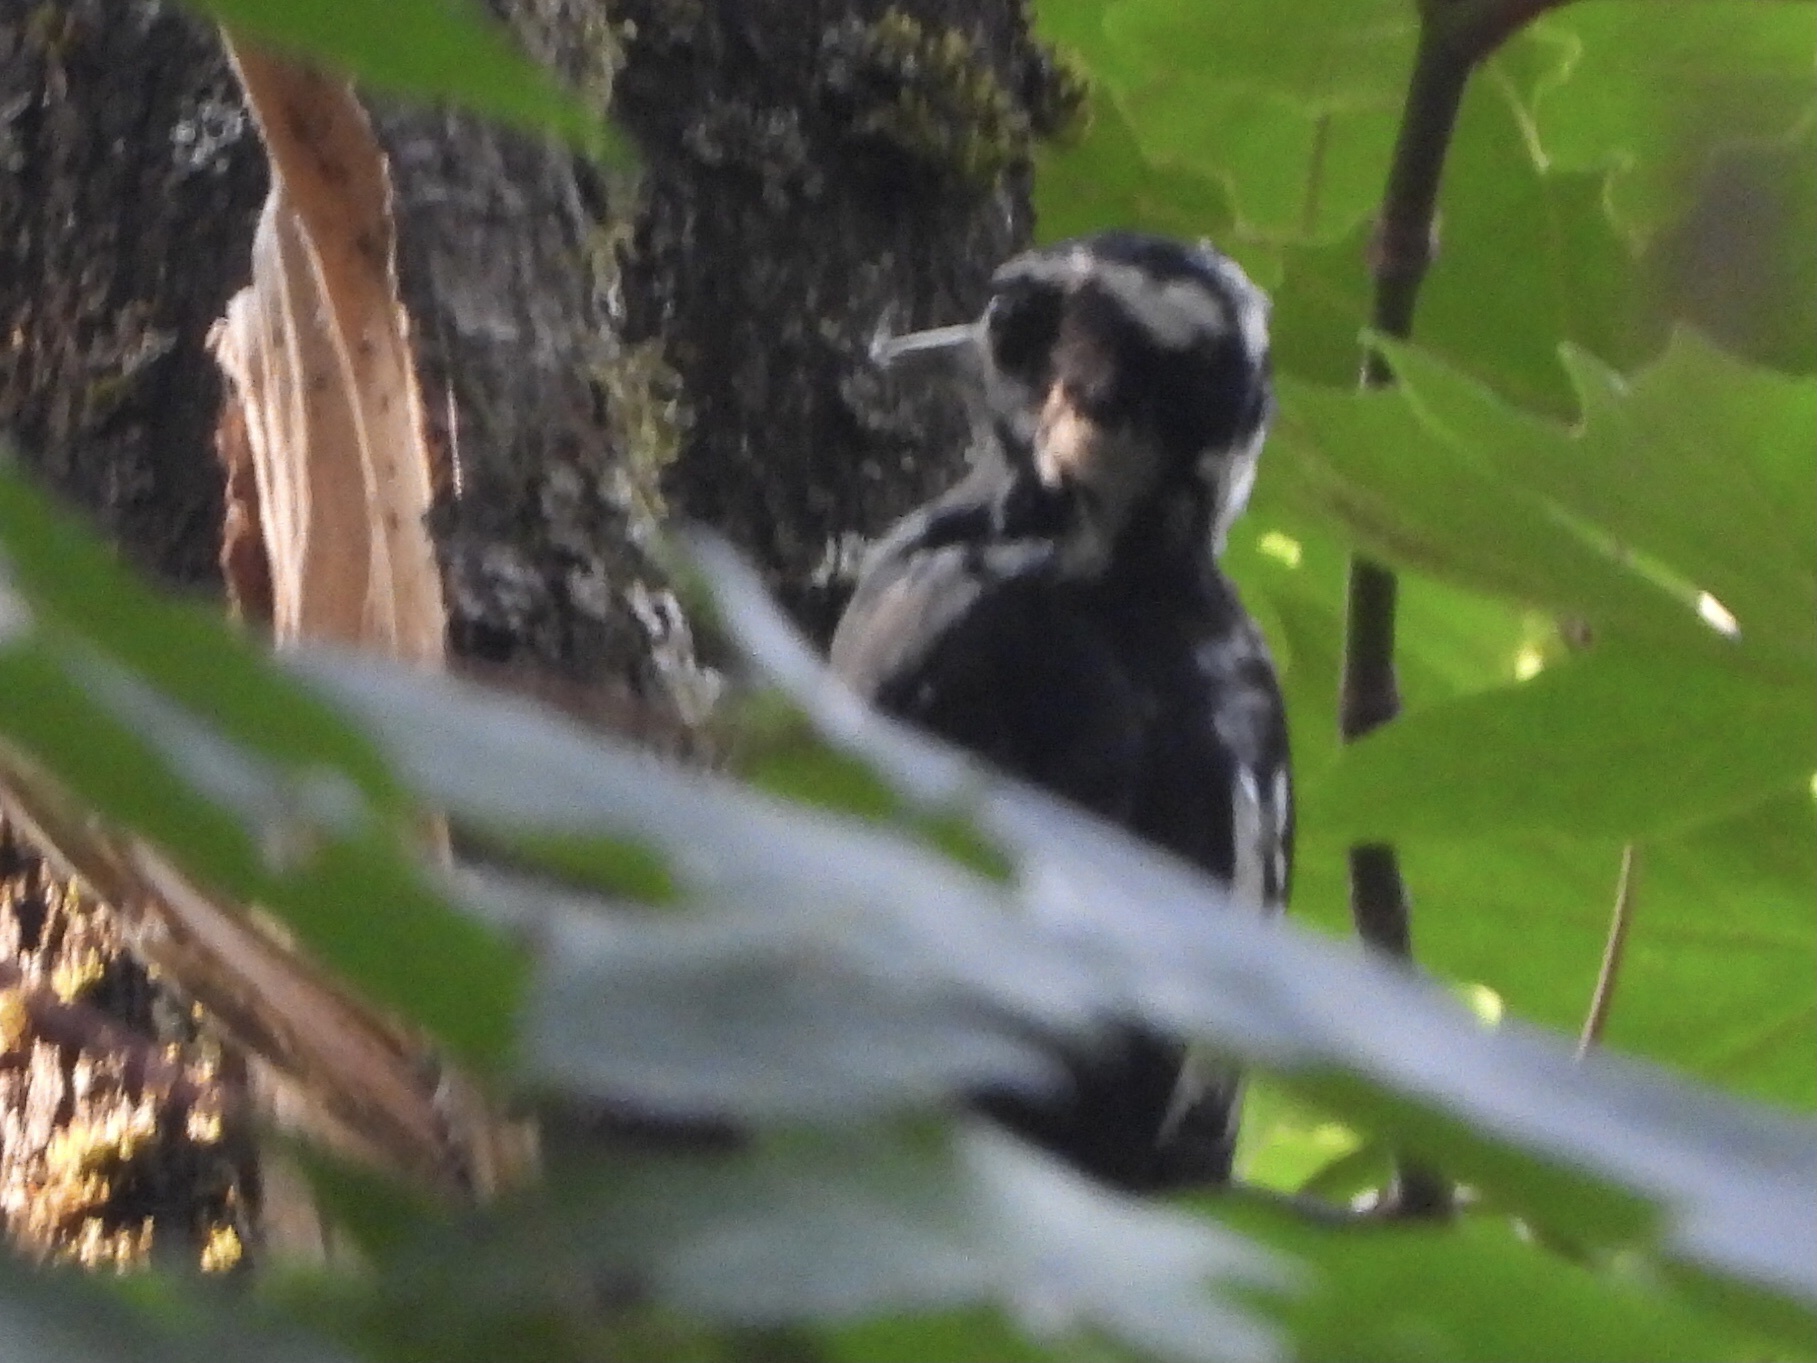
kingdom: Animalia
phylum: Chordata
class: Aves
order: Piciformes
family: Picidae
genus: Leuconotopicus
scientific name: Leuconotopicus villosus
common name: Hairy woodpecker
